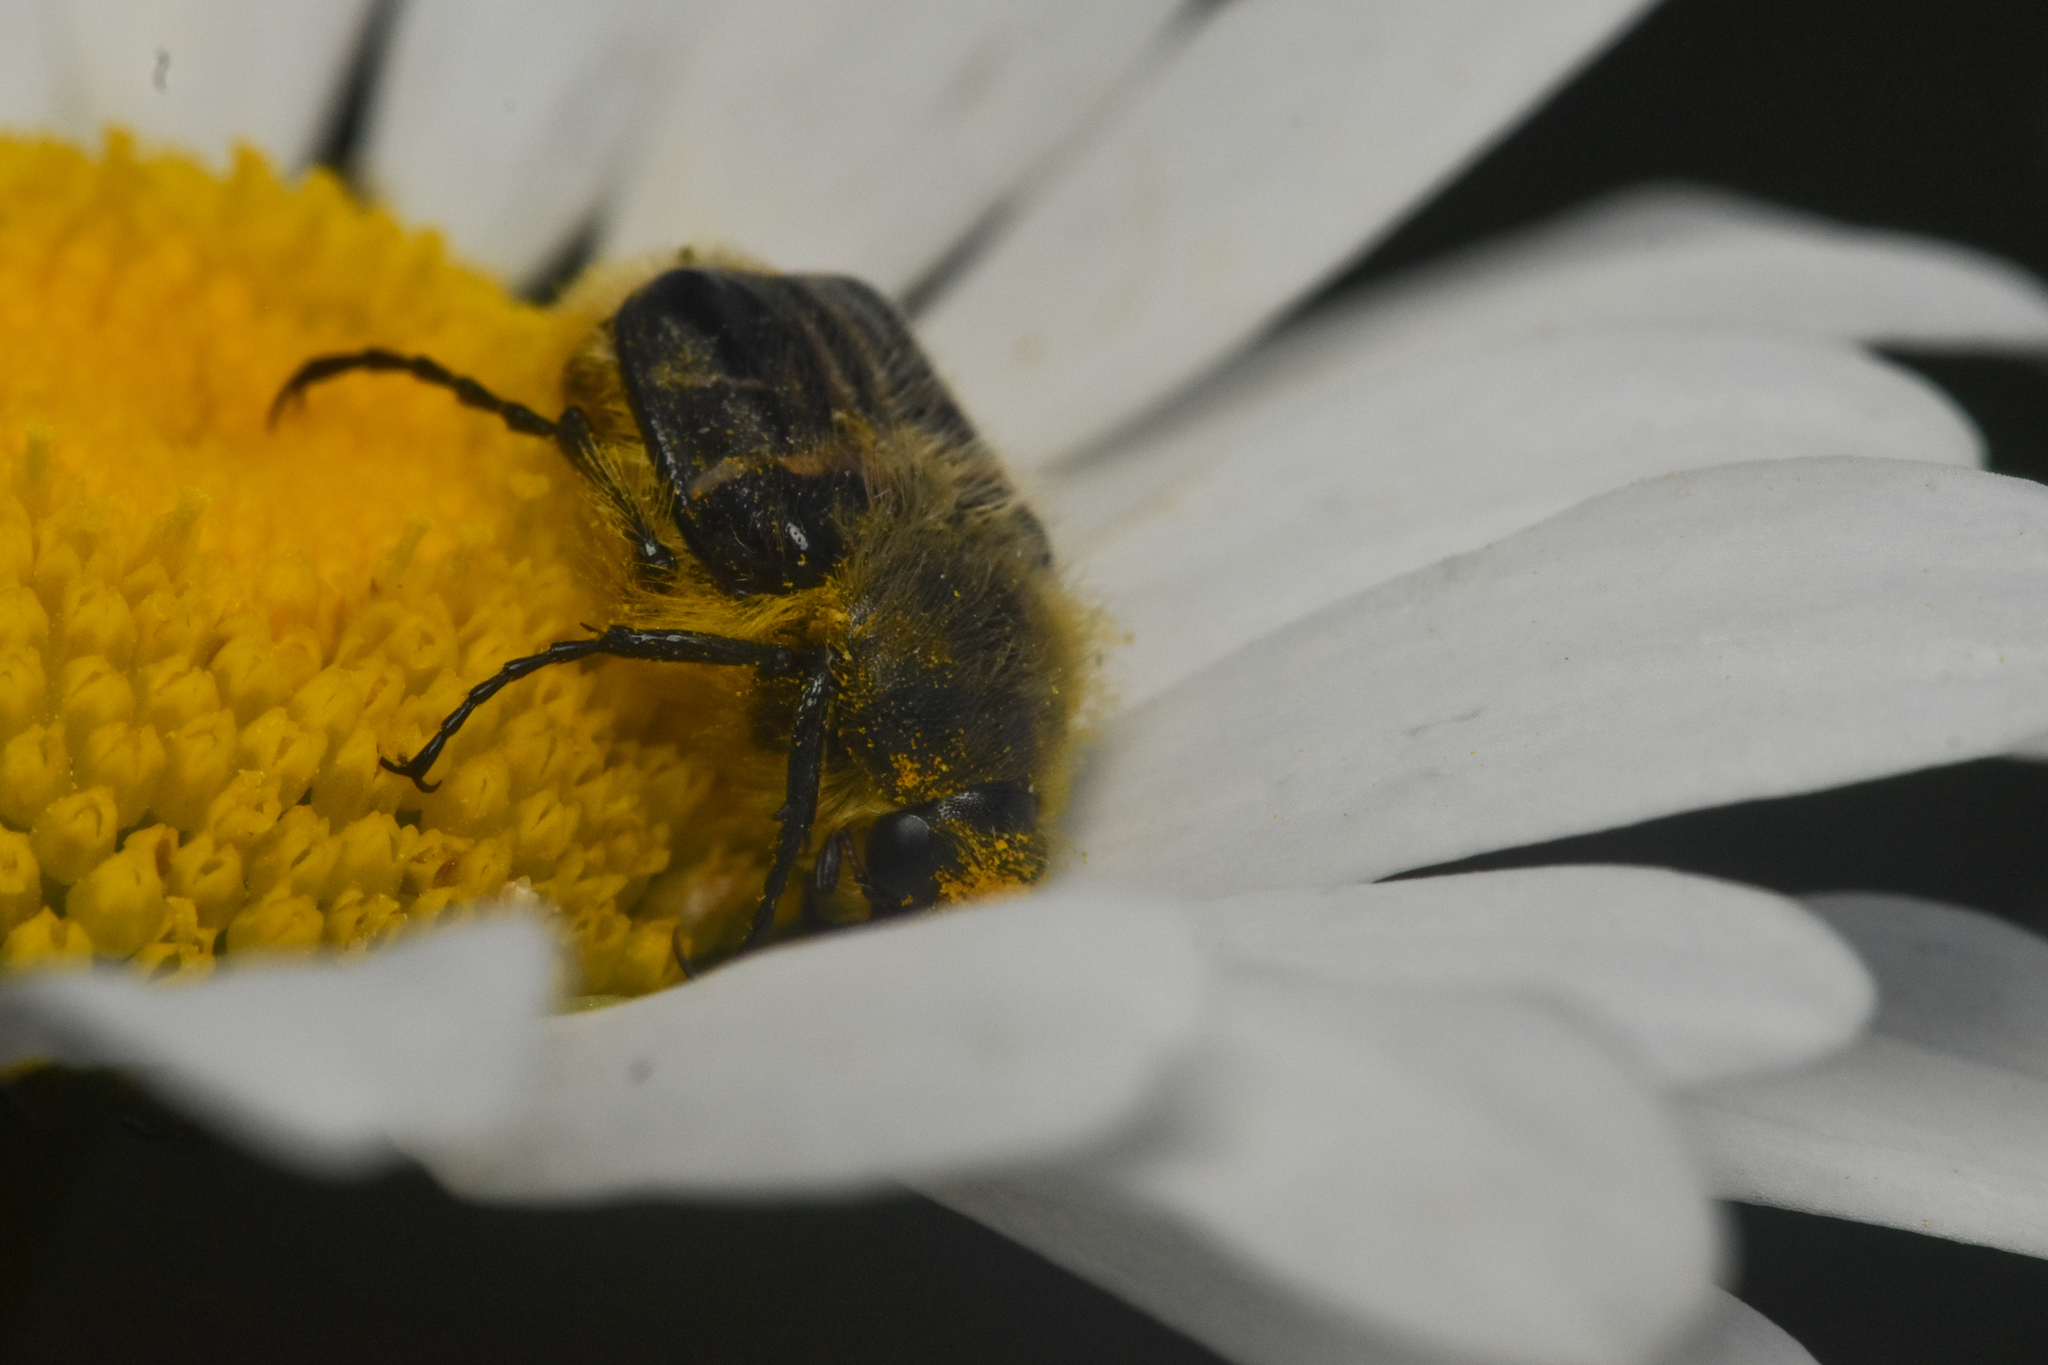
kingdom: Animalia
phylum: Arthropoda
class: Insecta
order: Coleoptera
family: Scarabaeidae
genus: Trichiotinus
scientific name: Trichiotinus assimilis
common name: Bee-mimic beetle
